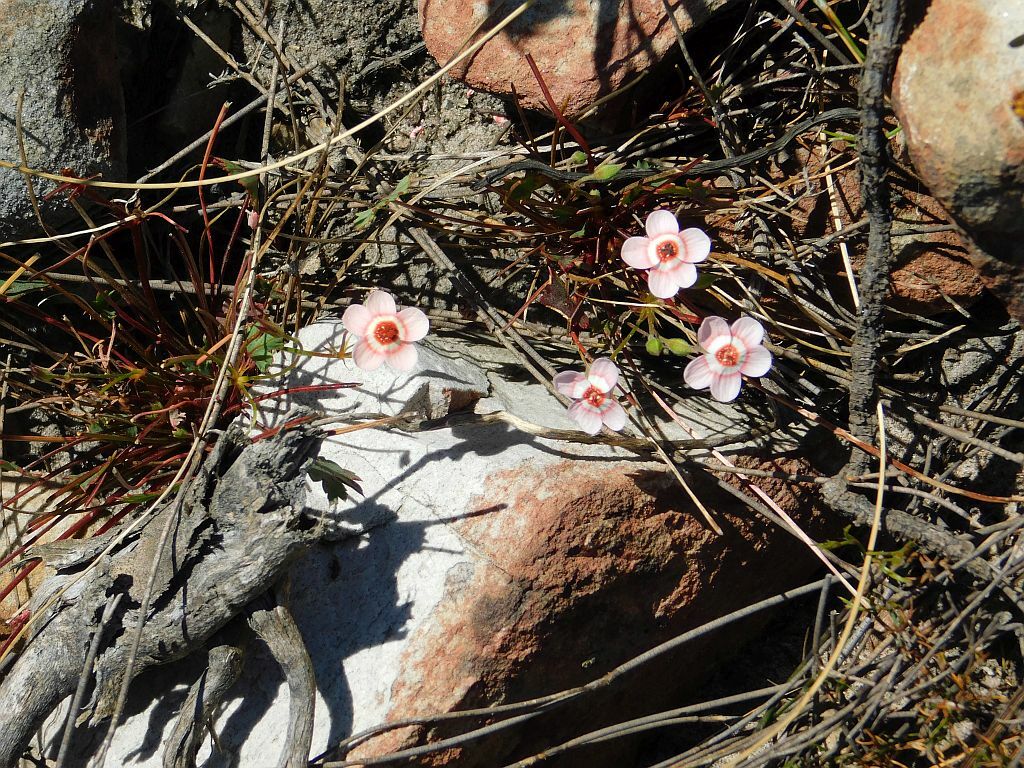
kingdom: Plantae
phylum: Tracheophyta
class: Magnoliopsida
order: Geraniales
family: Geraniaceae
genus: Pelargonium
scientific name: Pelargonium incarnatum
